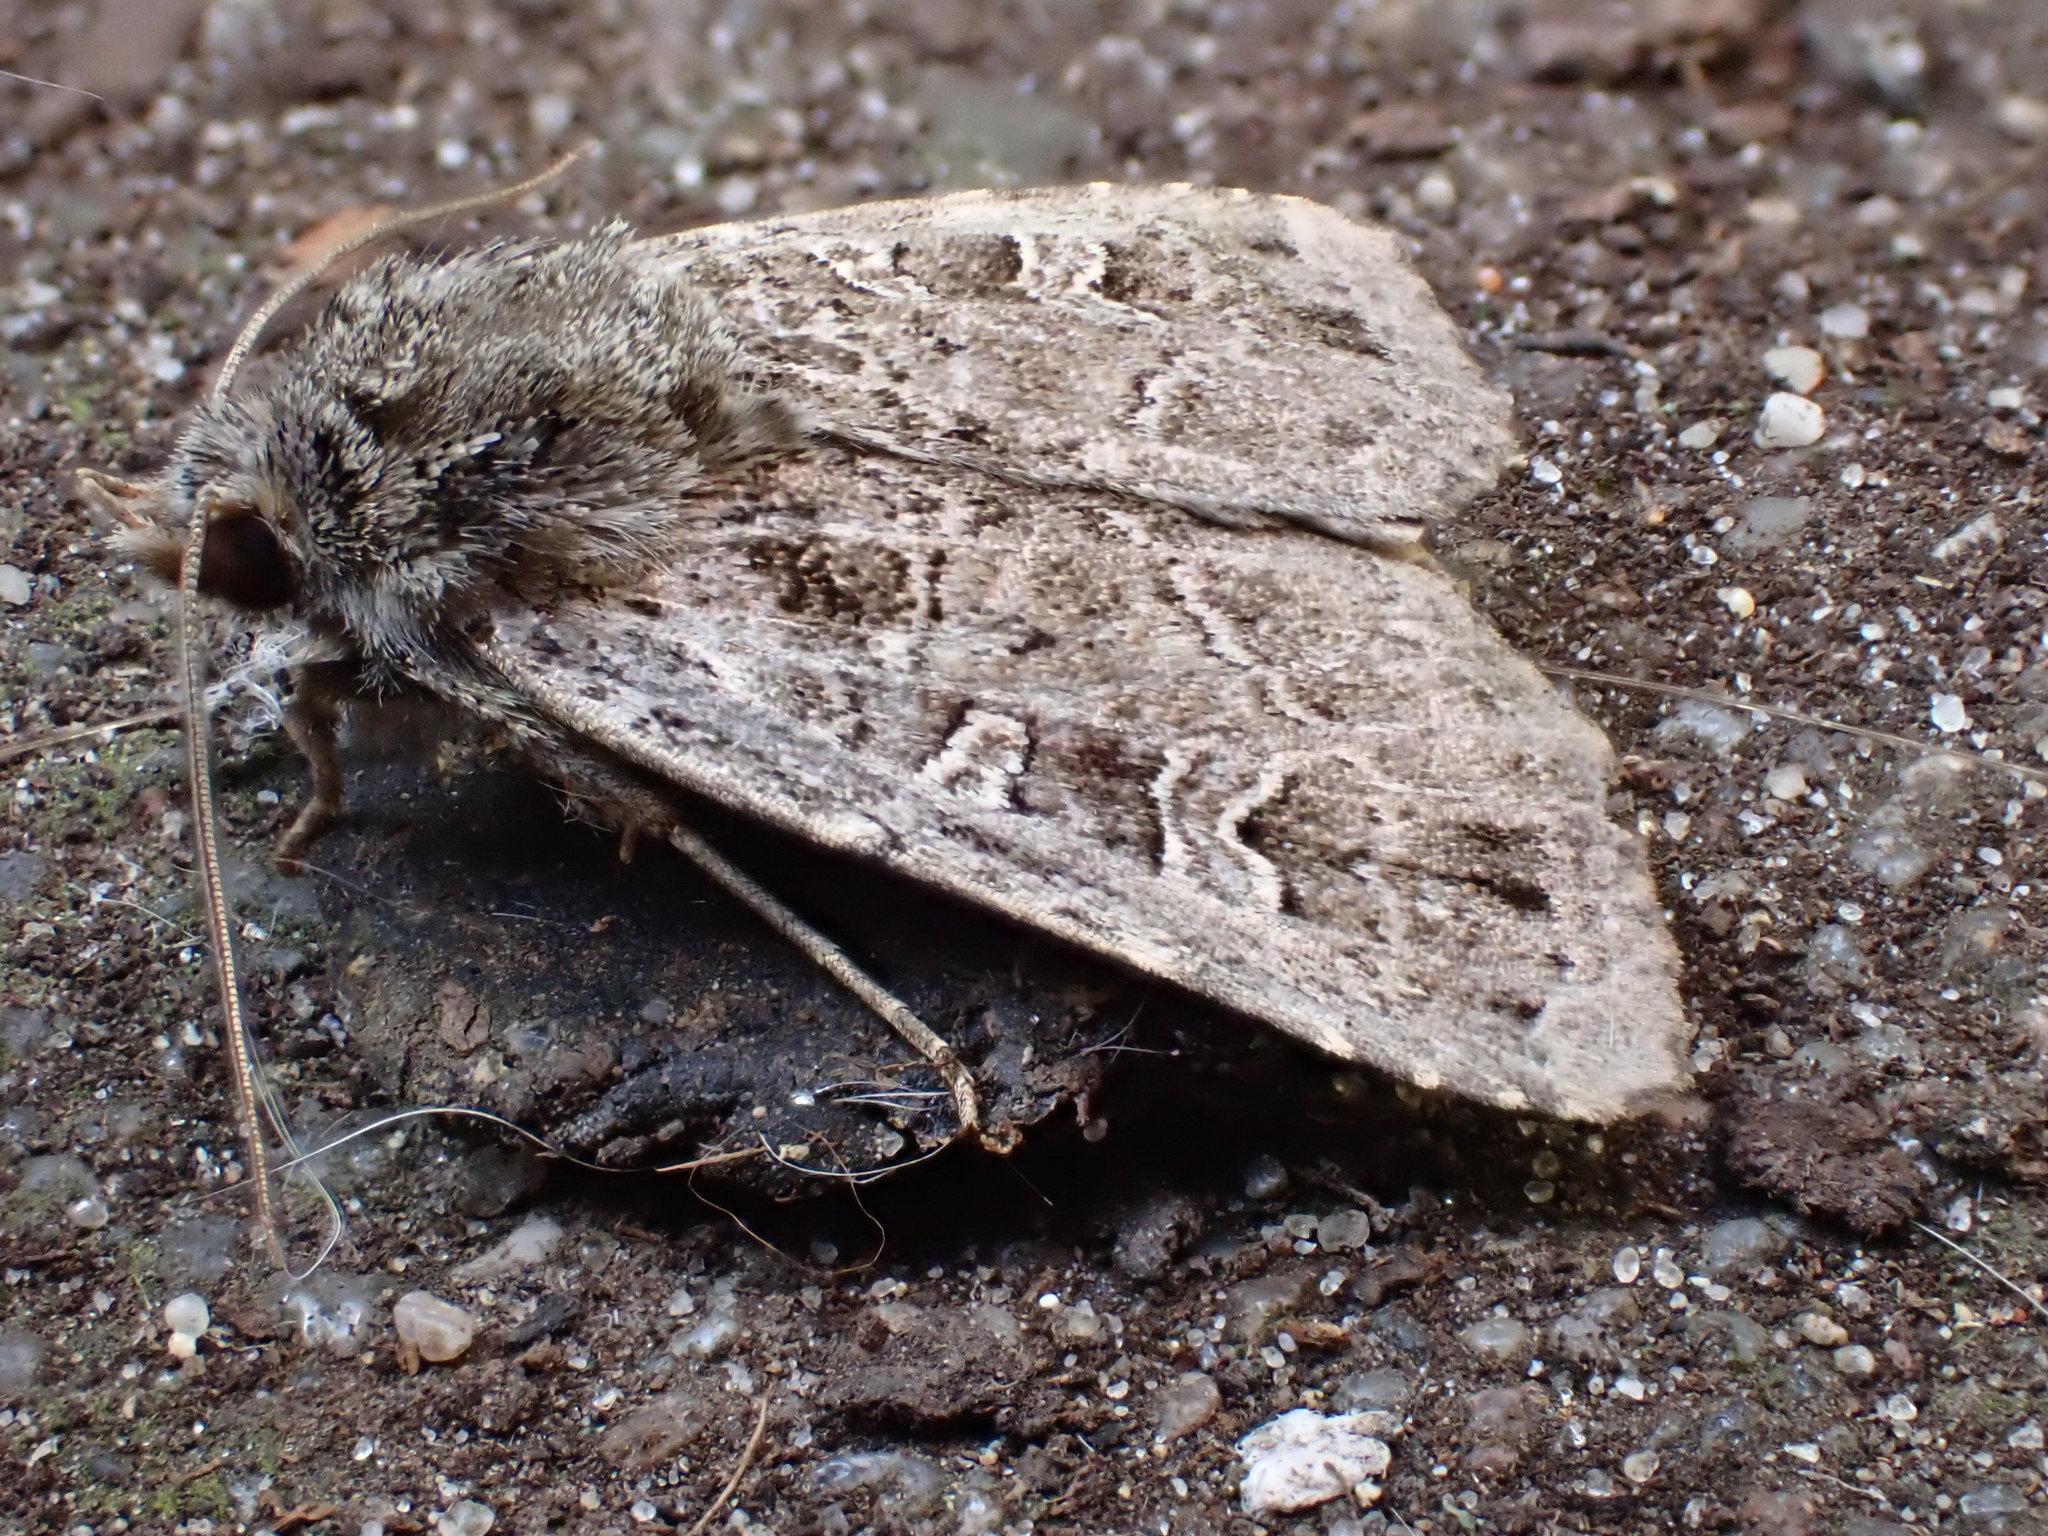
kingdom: Animalia
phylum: Arthropoda
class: Insecta
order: Lepidoptera
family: Noctuidae
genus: Naenia
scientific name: Naenia typica
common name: Gothic
